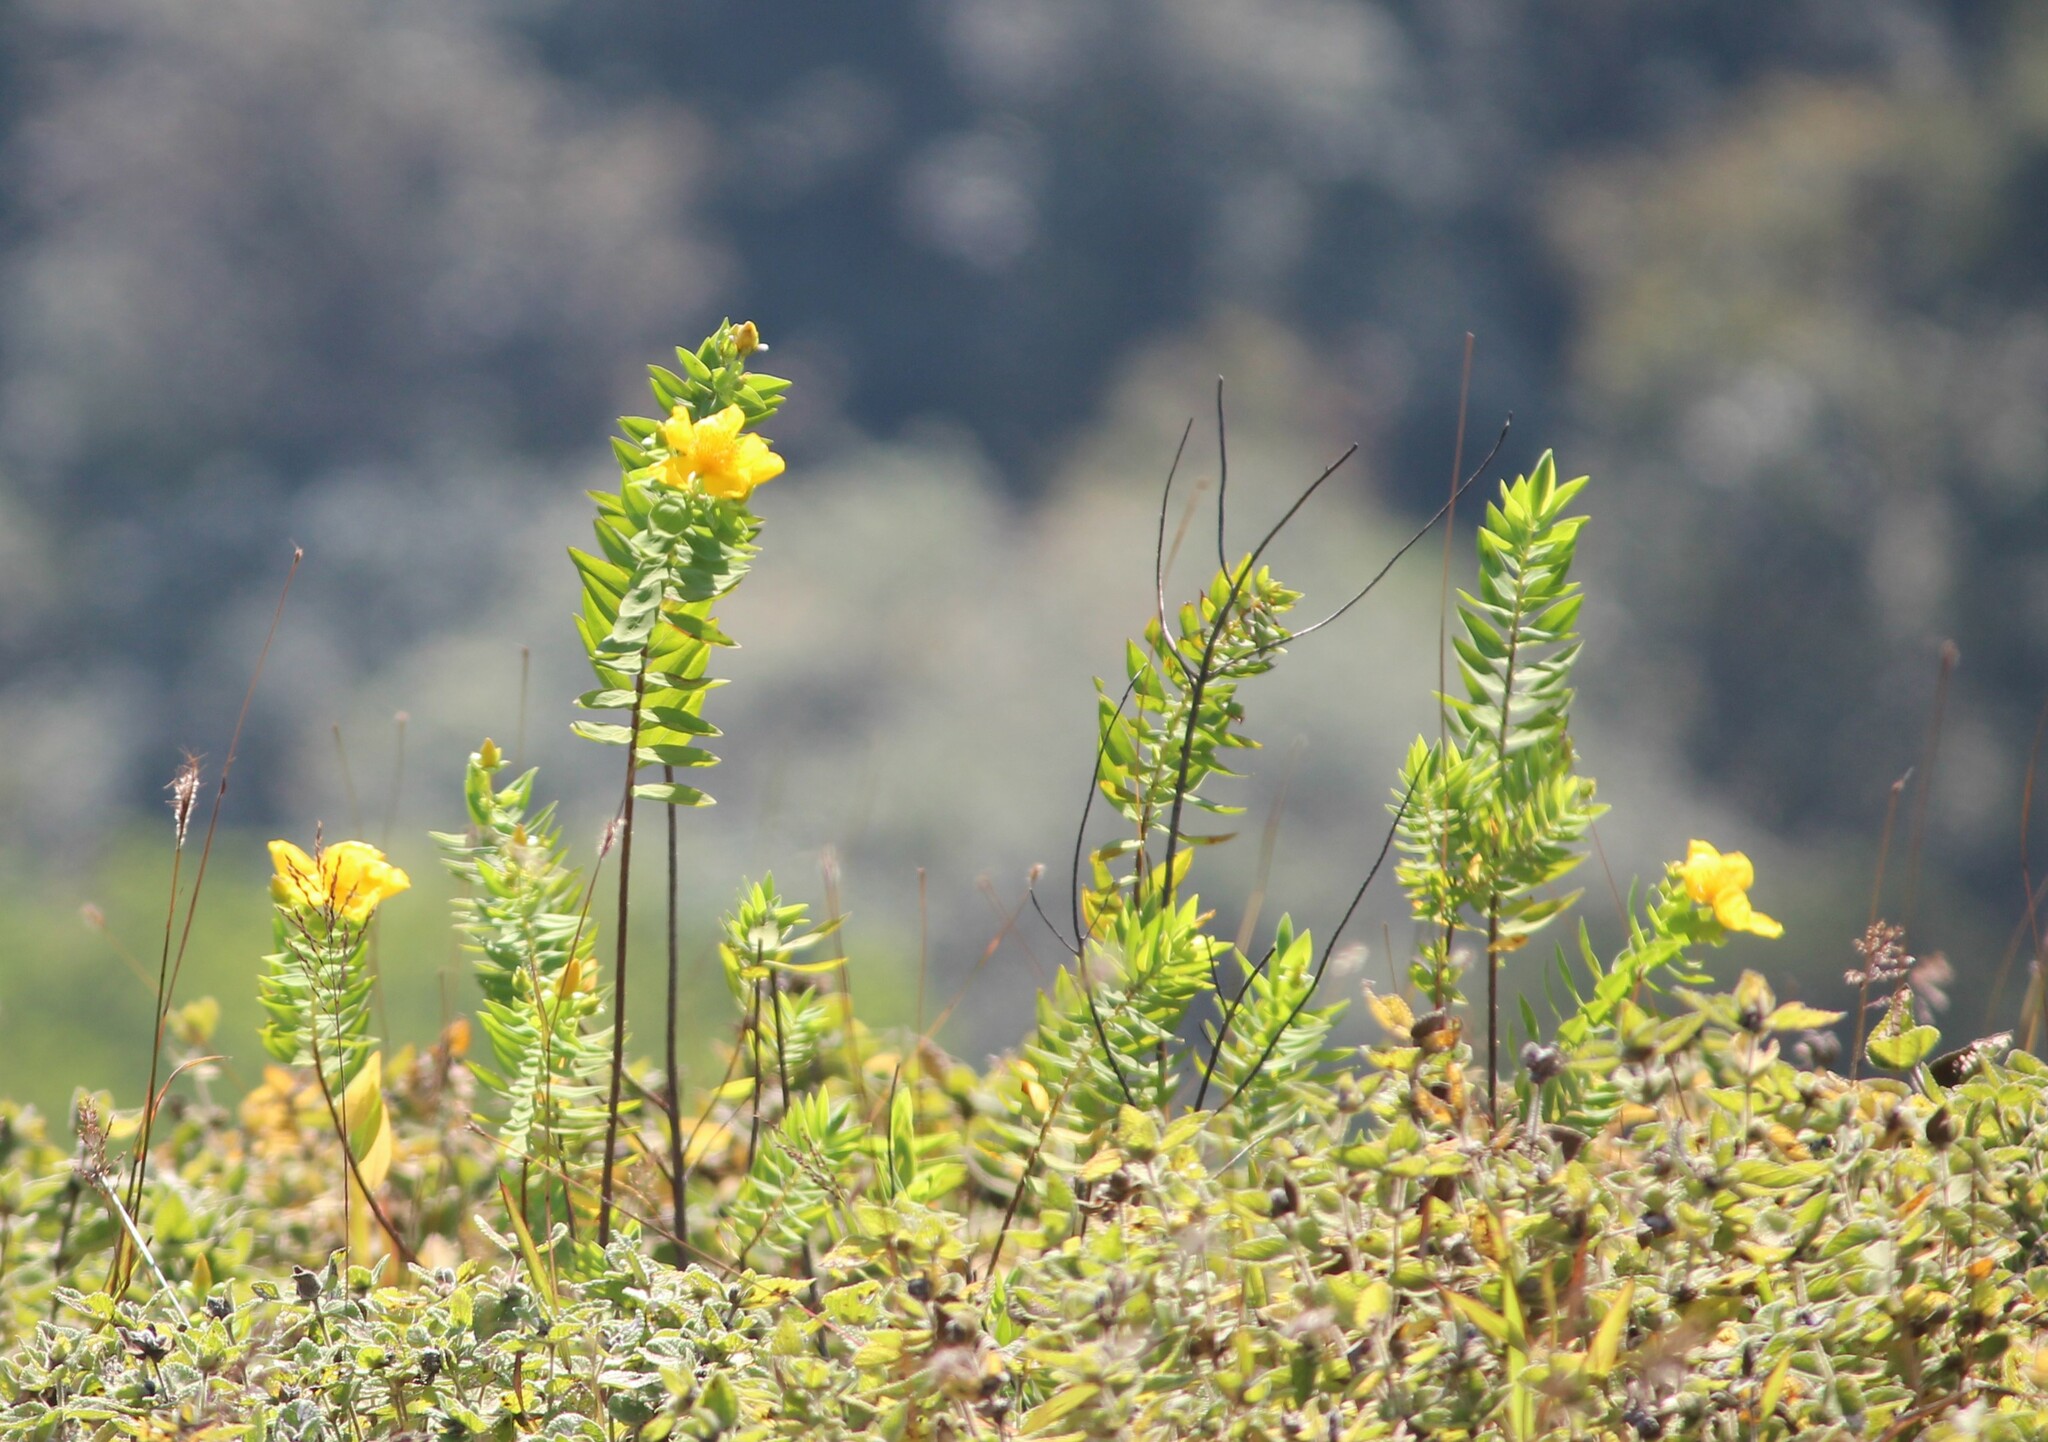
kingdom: Plantae
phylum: Tracheophyta
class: Magnoliopsida
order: Malpighiales
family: Hypericaceae
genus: Hypericum
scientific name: Hypericum mysurense
